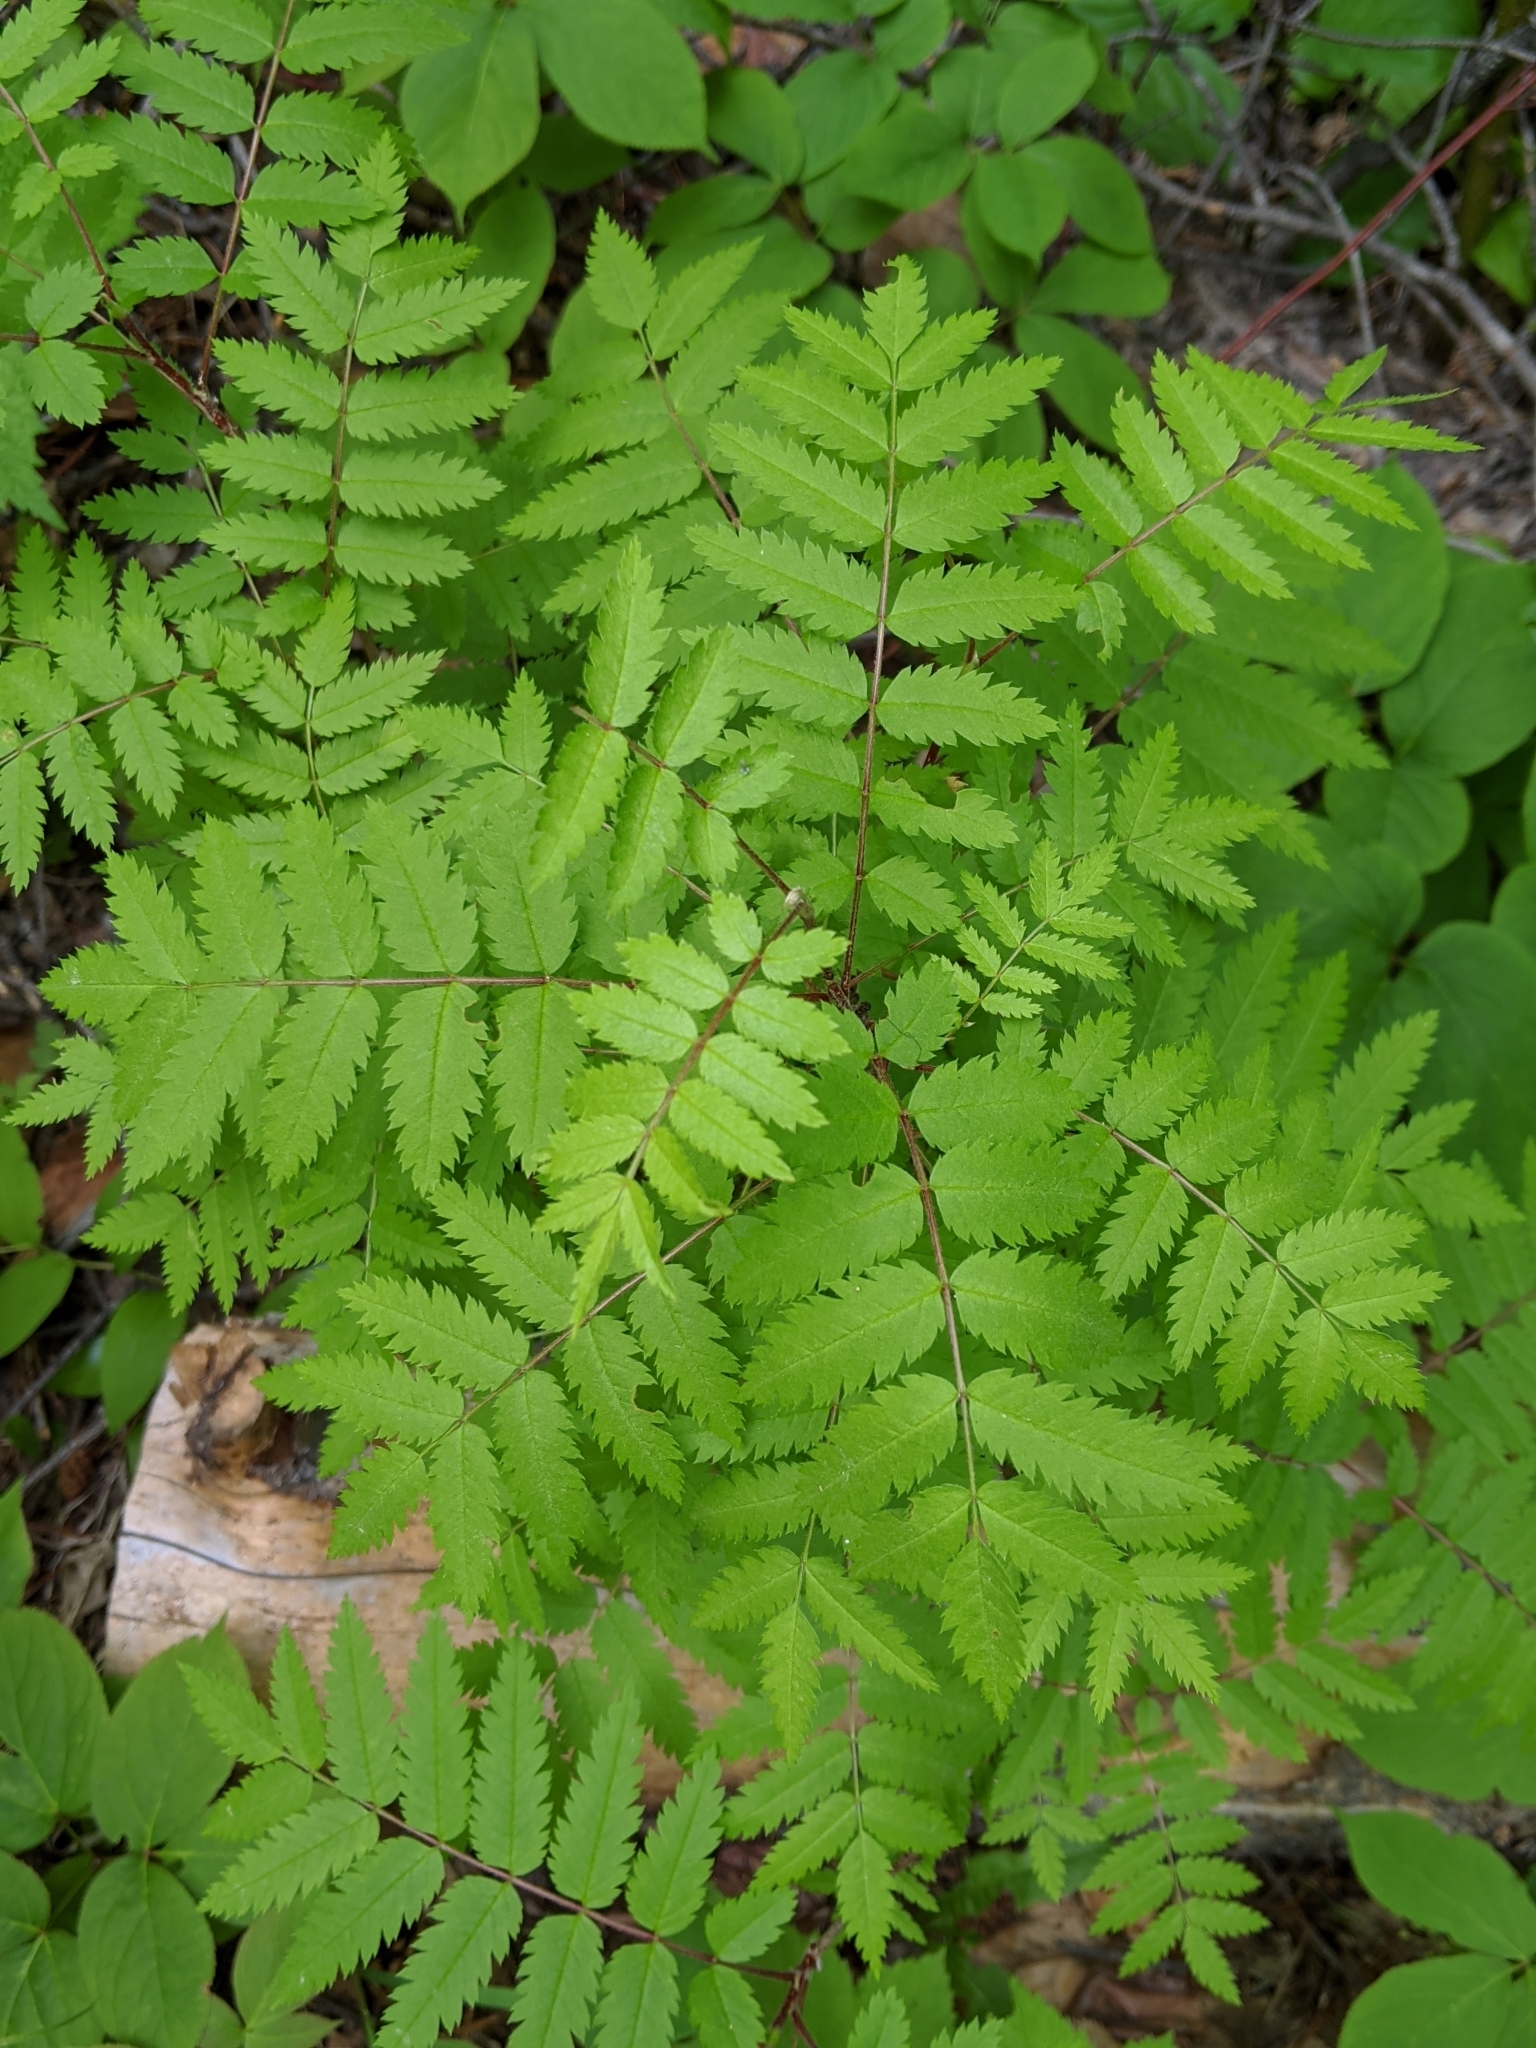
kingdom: Plantae
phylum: Tracheophyta
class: Magnoliopsida
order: Rosales
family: Rosaceae
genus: Sorbus
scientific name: Sorbus aucuparia
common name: Rowan
